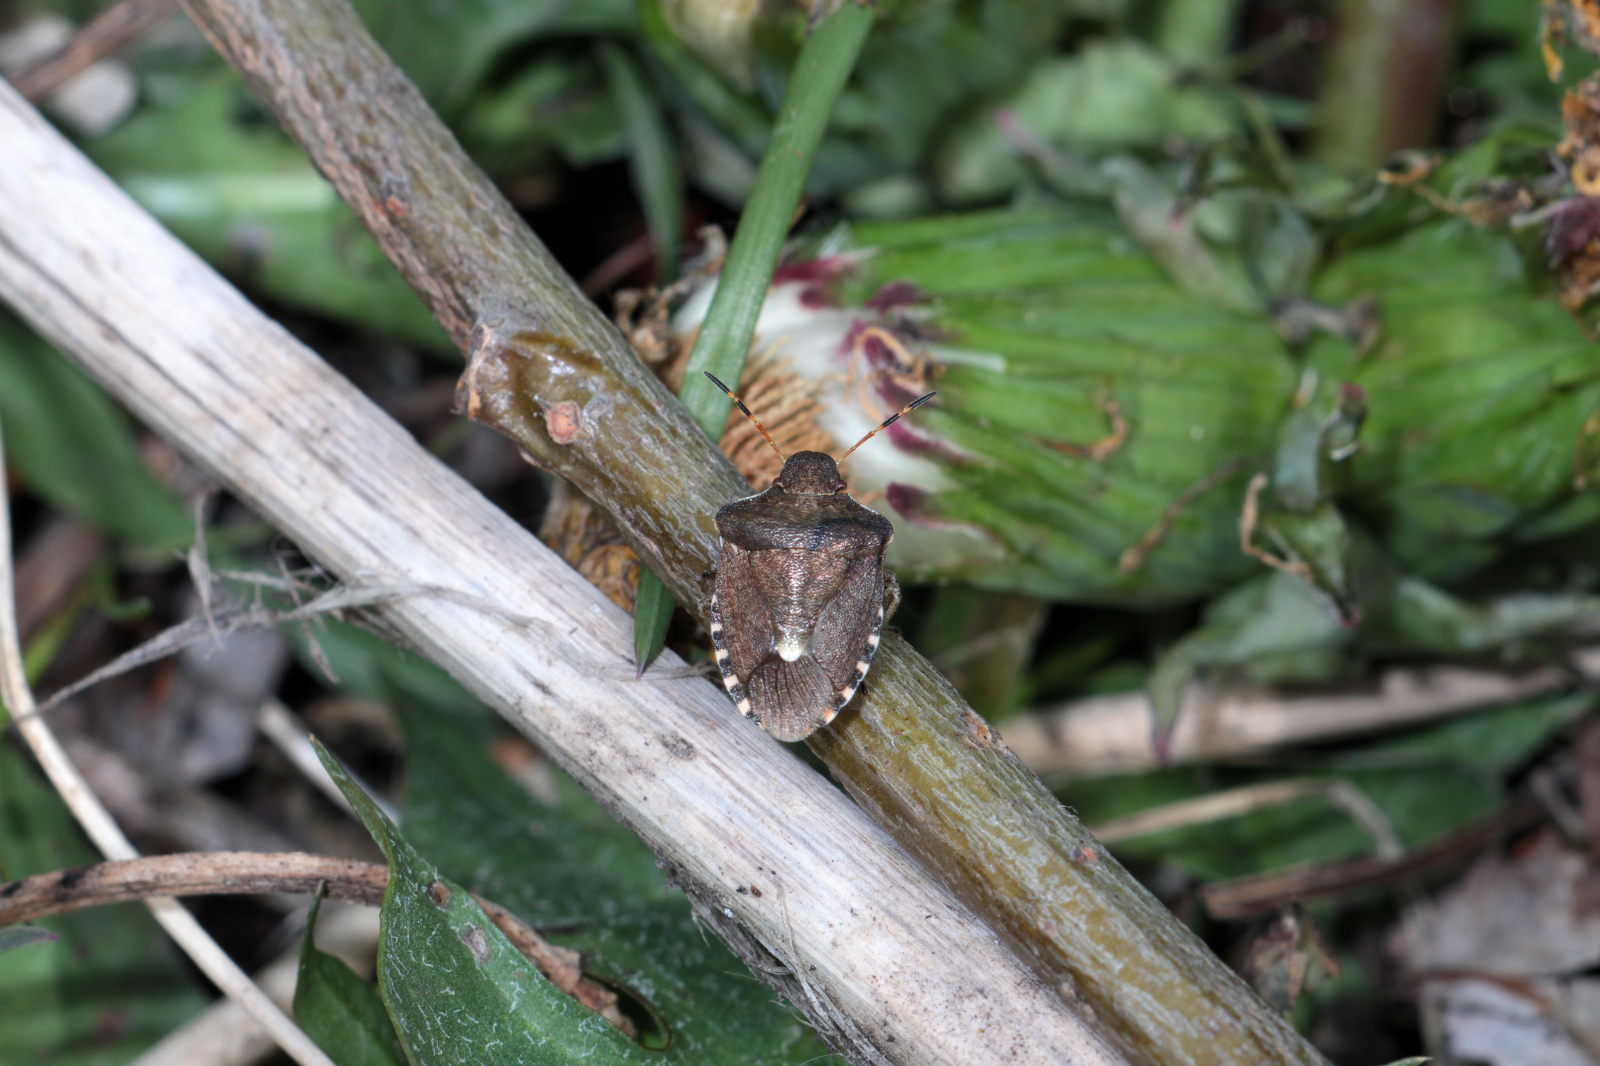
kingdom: Animalia
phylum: Arthropoda
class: Insecta
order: Hemiptera
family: Pentatomidae
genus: Holcostethus
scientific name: Holcostethus strictus
